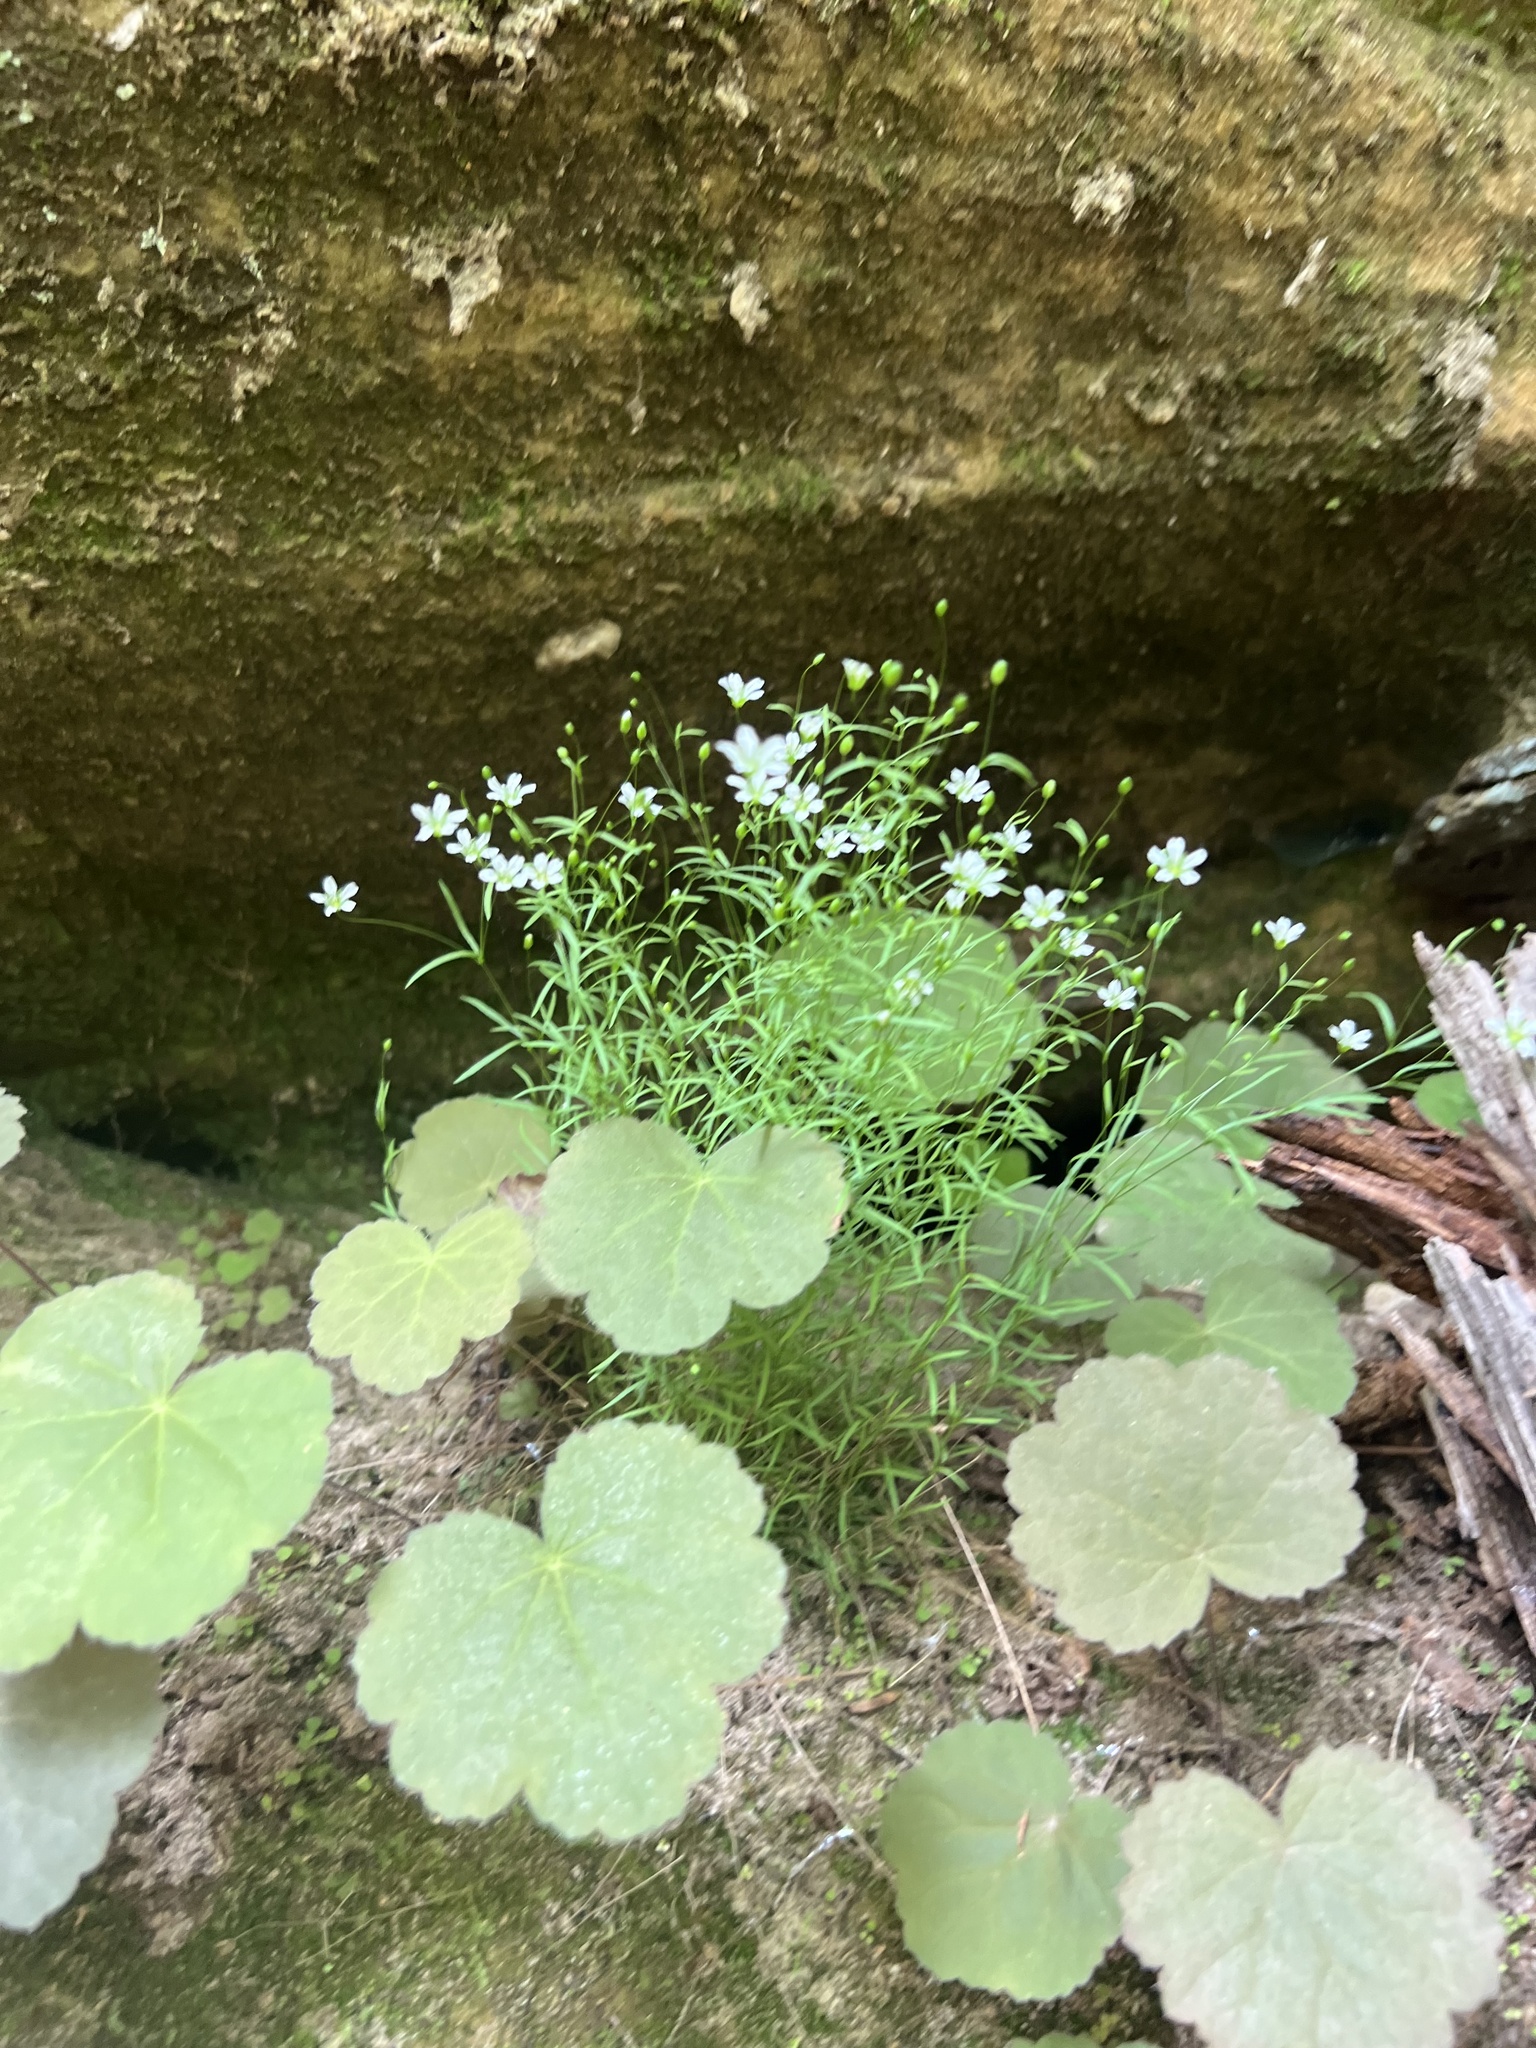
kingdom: Plantae
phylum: Tracheophyta
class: Magnoliopsida
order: Caryophyllales
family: Caryophyllaceae
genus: Geocarpon
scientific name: Geocarpon cumberlandense
